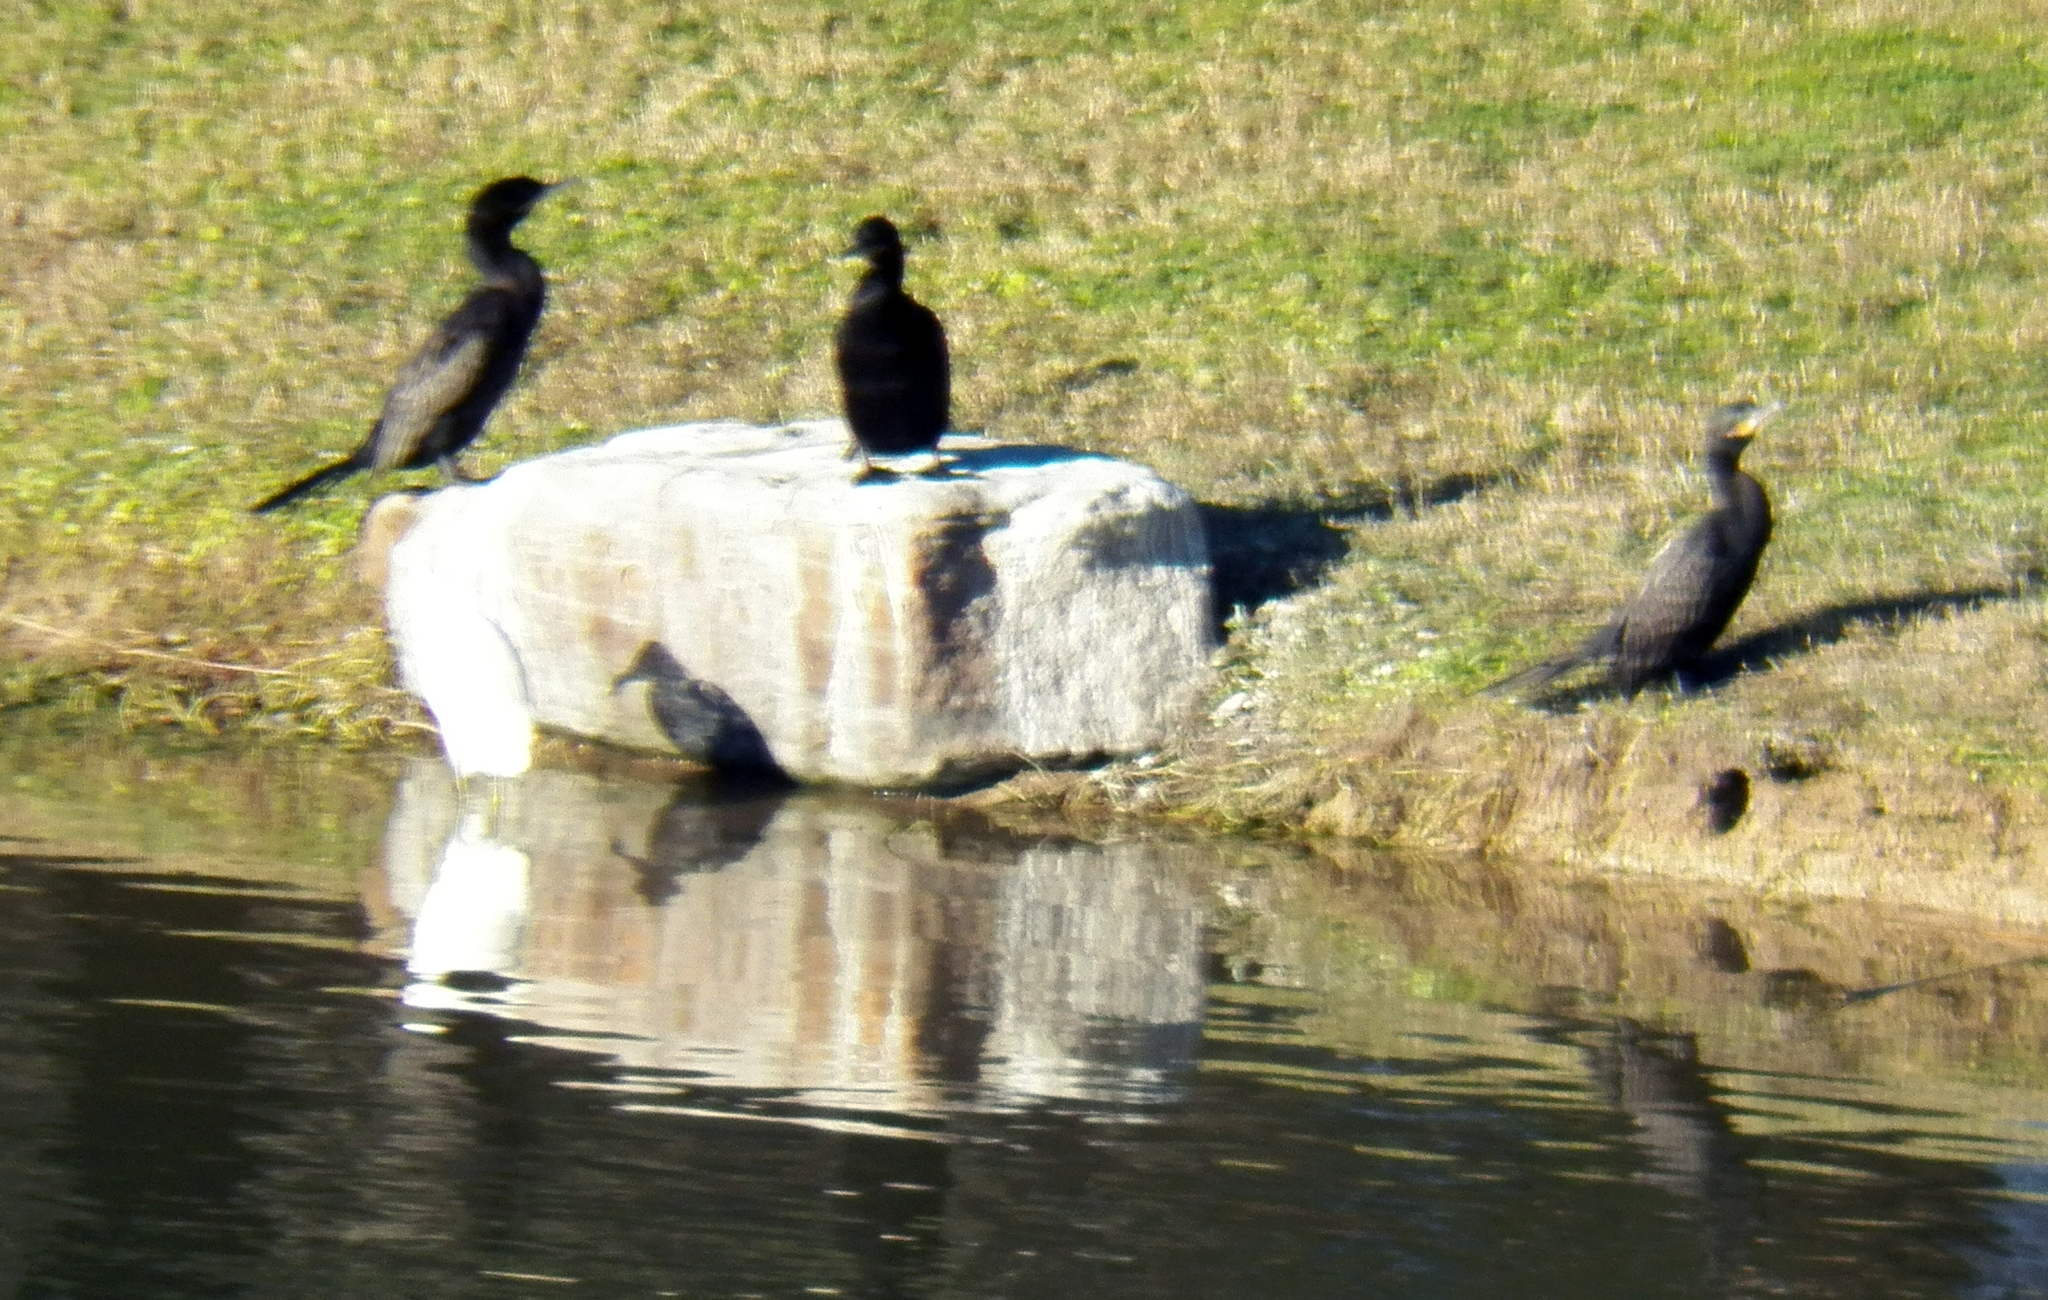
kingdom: Animalia
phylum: Chordata
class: Aves
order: Suliformes
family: Phalacrocoracidae
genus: Phalacrocorax
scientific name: Phalacrocorax brasilianus
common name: Neotropic cormorant
